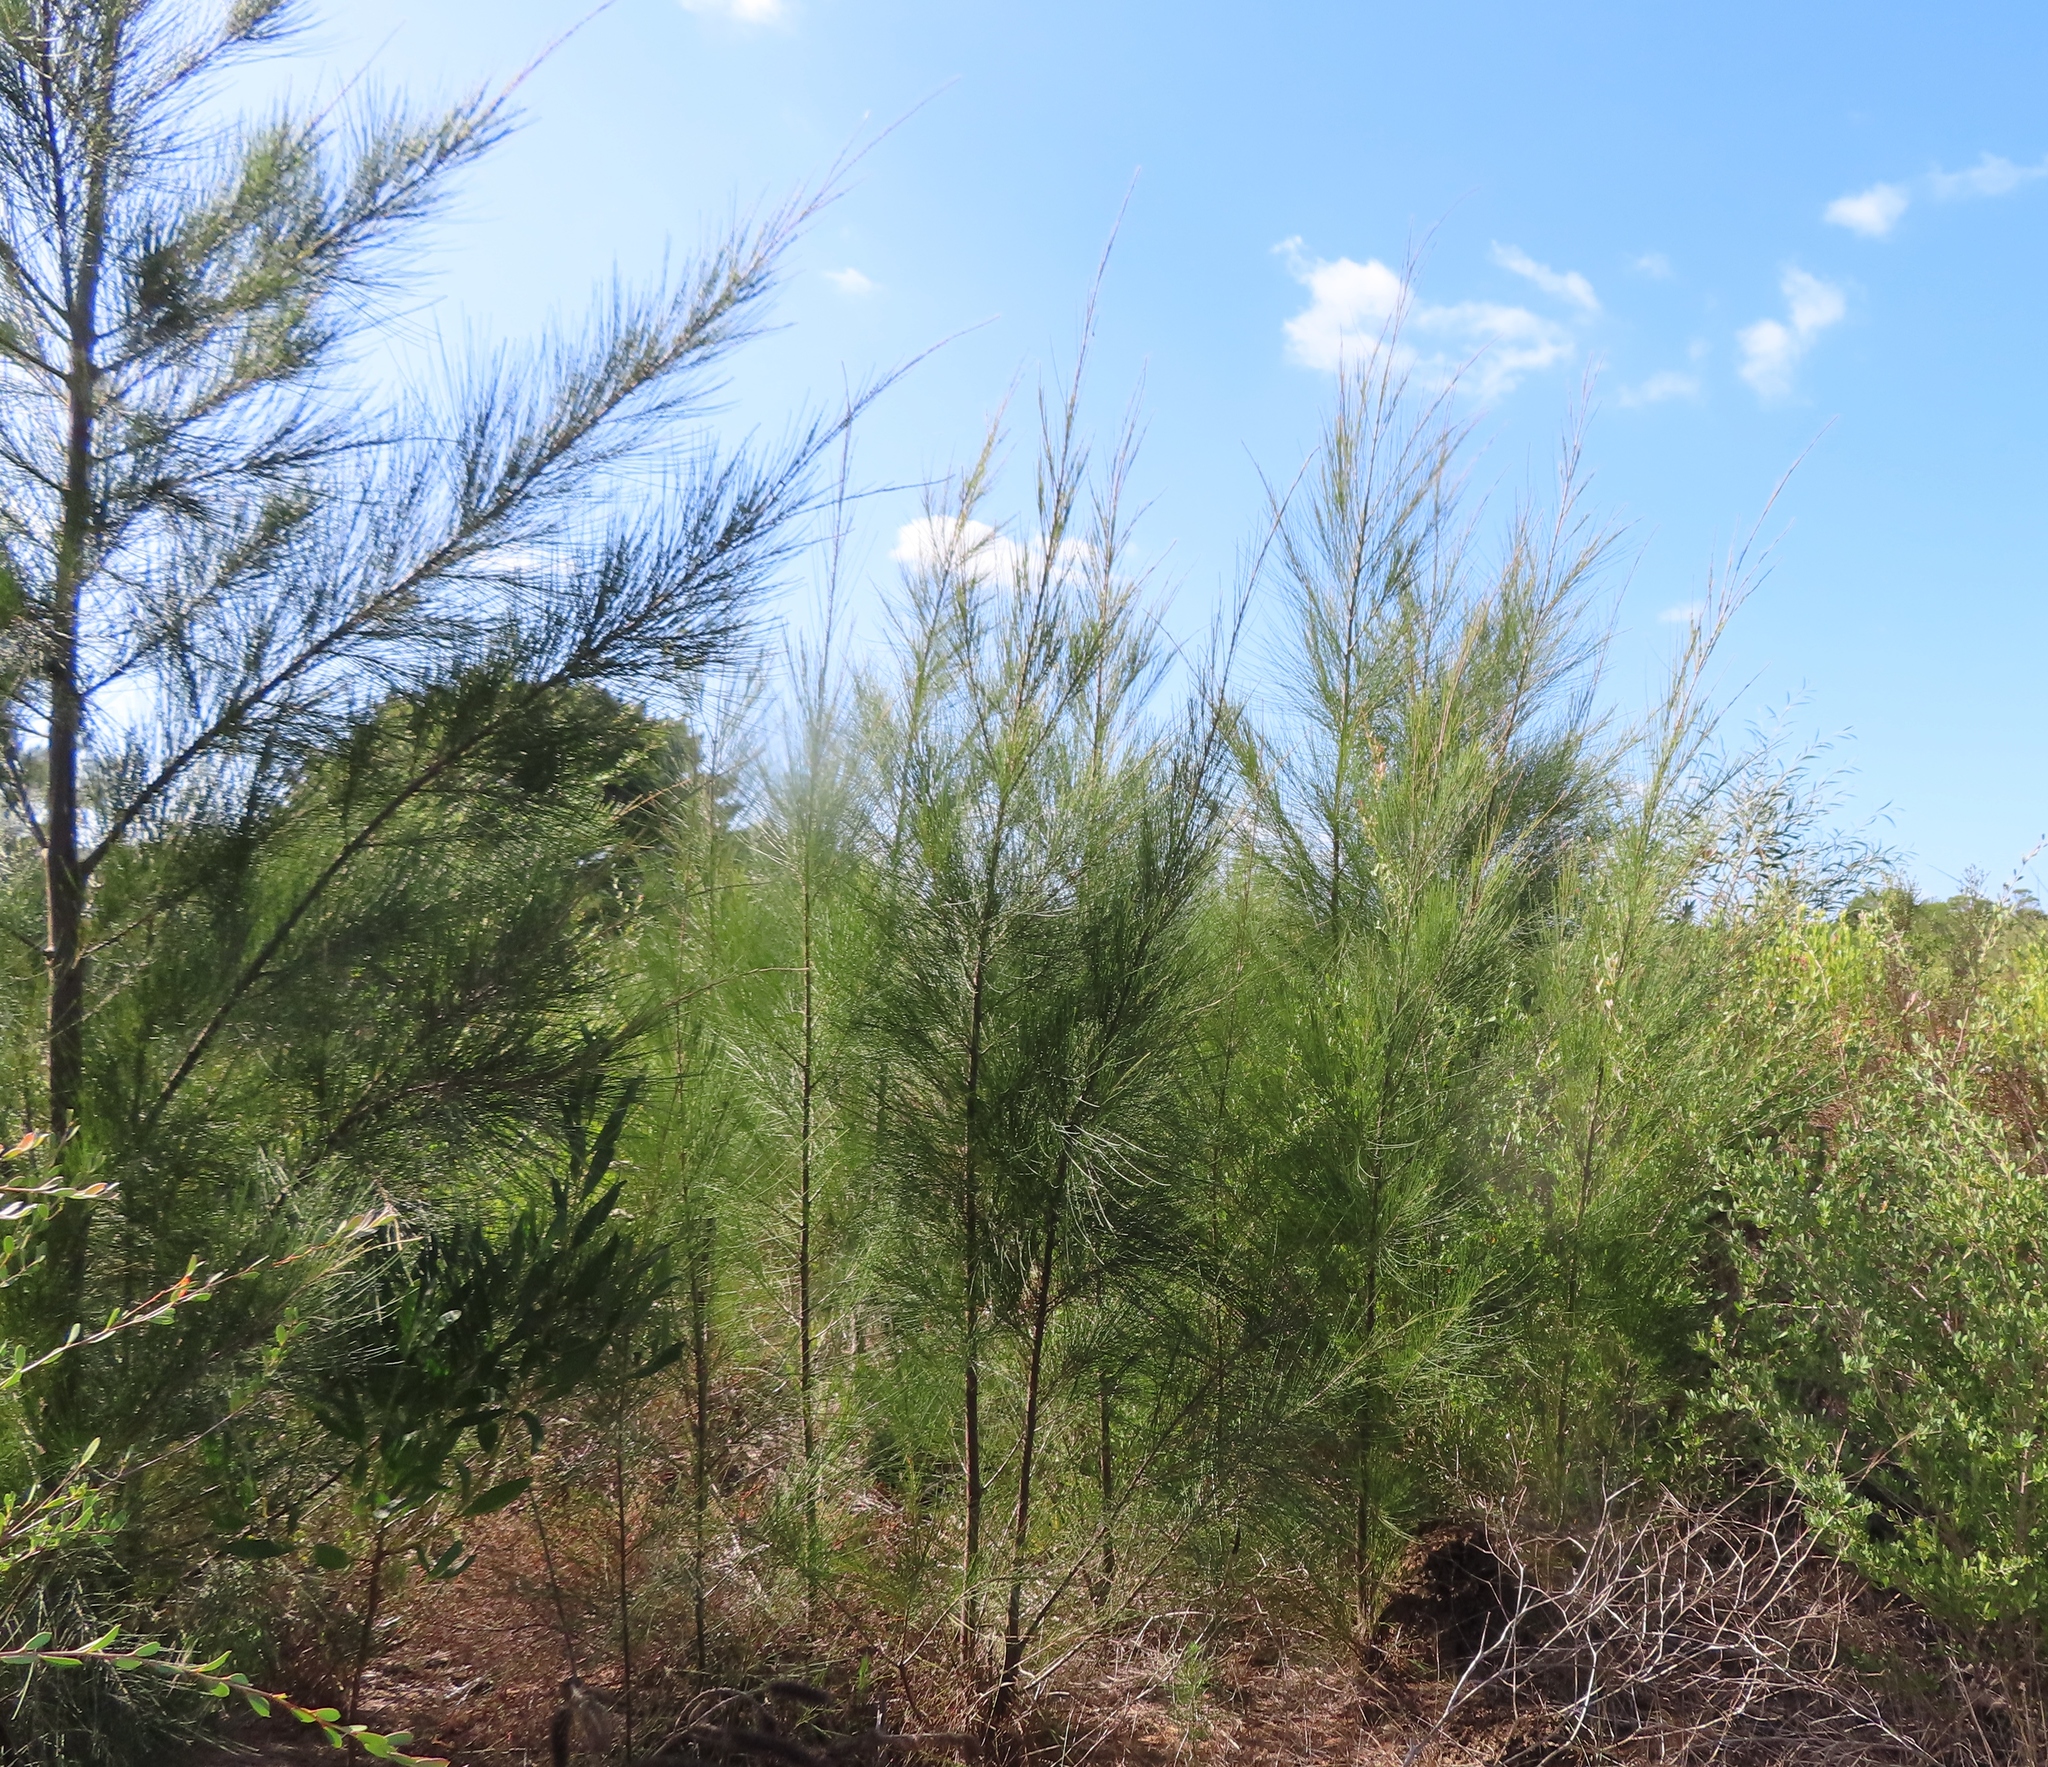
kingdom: Plantae
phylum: Tracheophyta
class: Magnoliopsida
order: Fagales
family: Casuarinaceae
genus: Casuarina
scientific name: Casuarina cunninghamiana
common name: River sheoak
